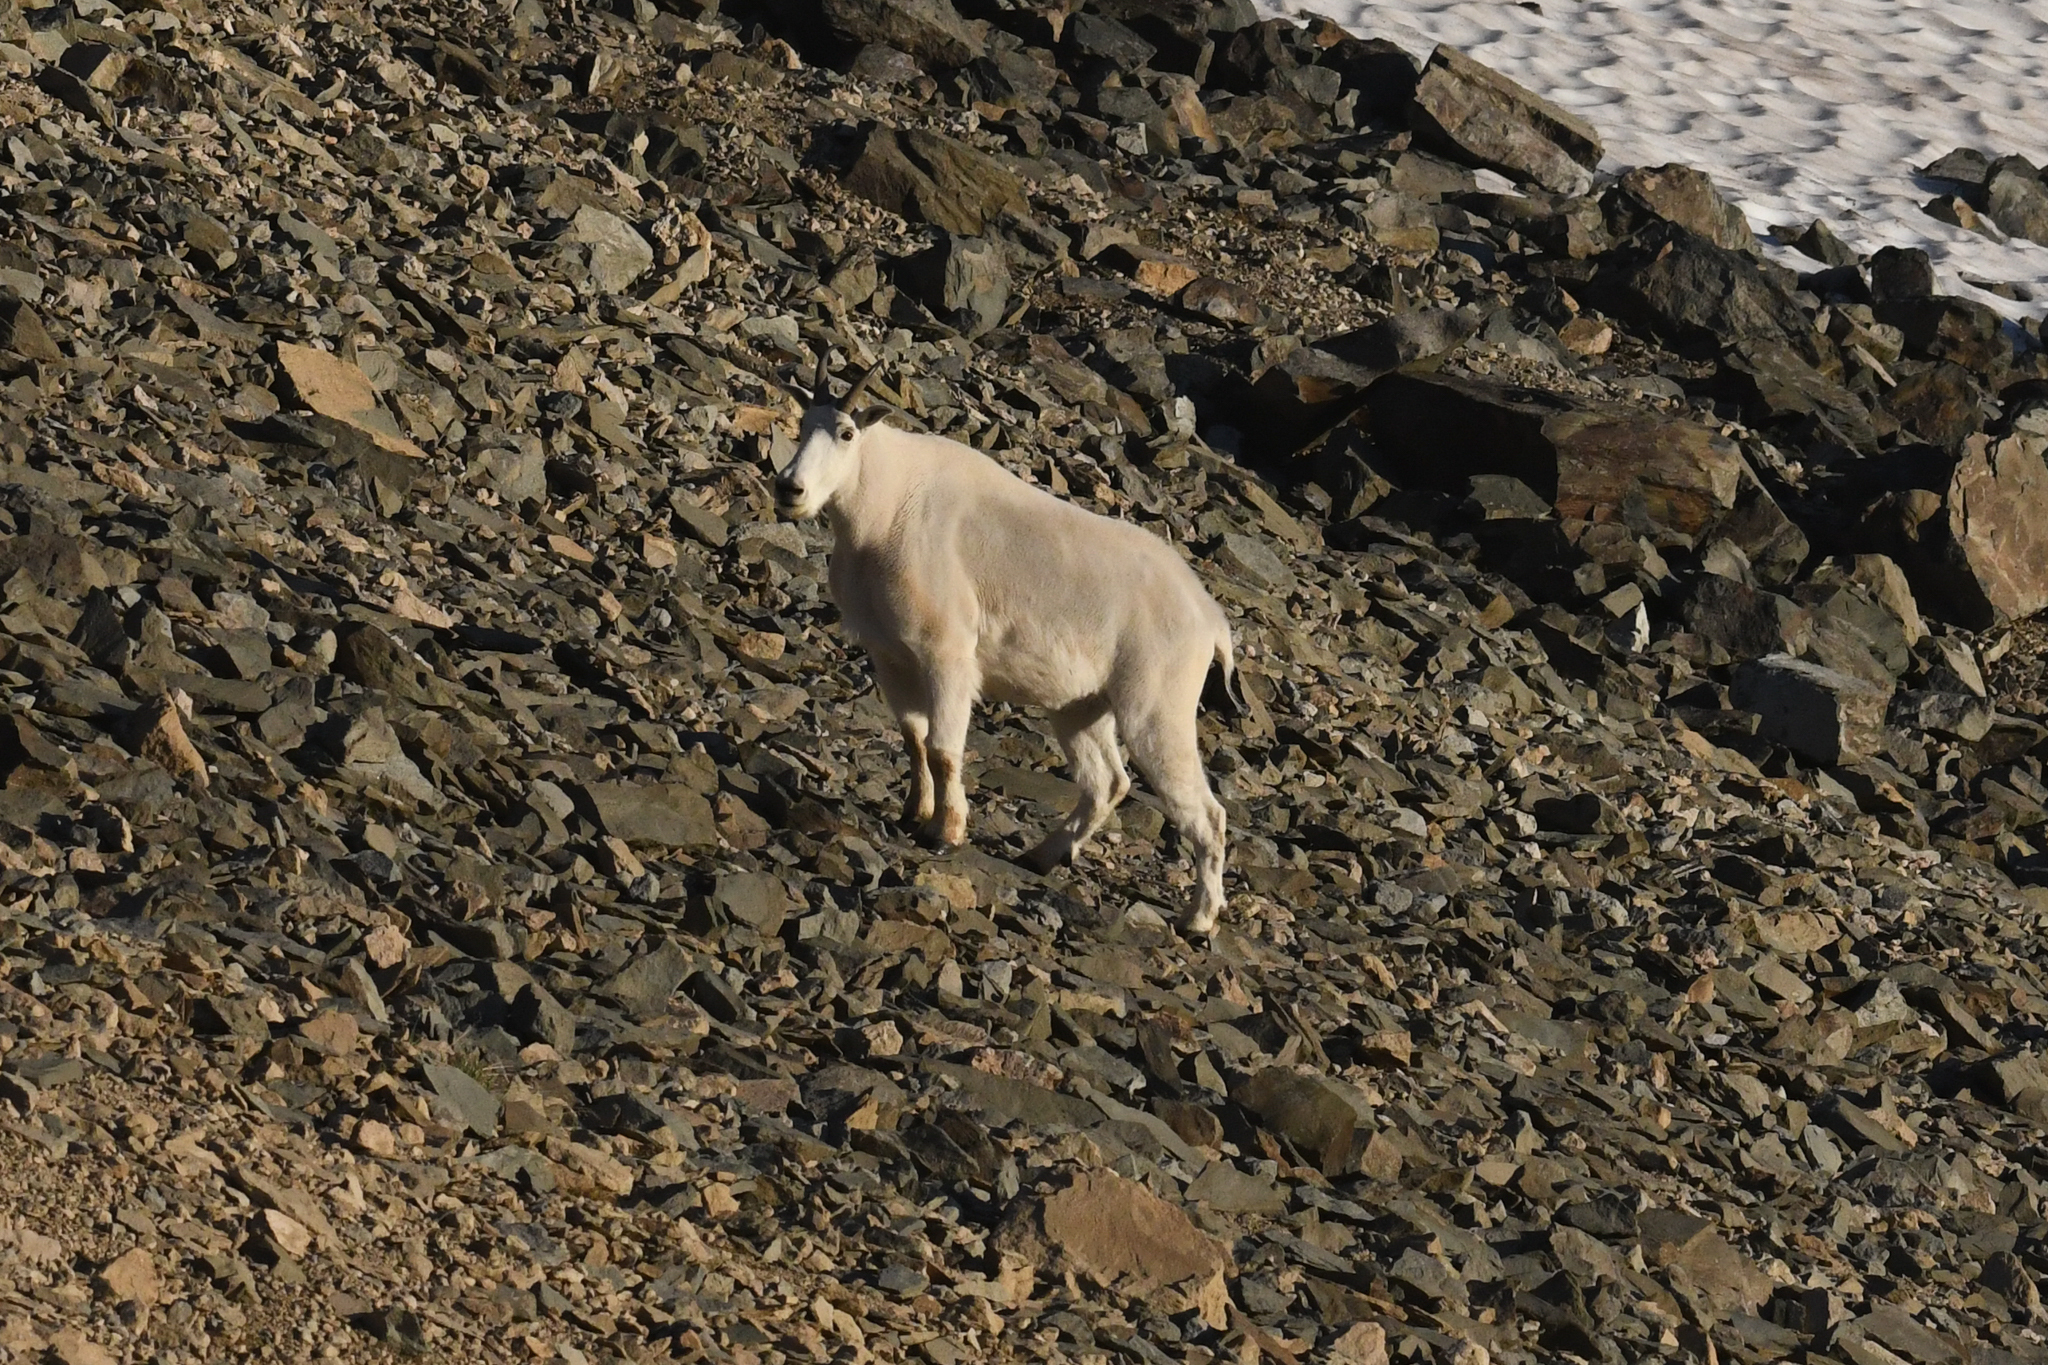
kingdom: Animalia
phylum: Chordata
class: Mammalia
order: Artiodactyla
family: Bovidae
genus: Oreamnos
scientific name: Oreamnos americanus
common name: Mountain goat
